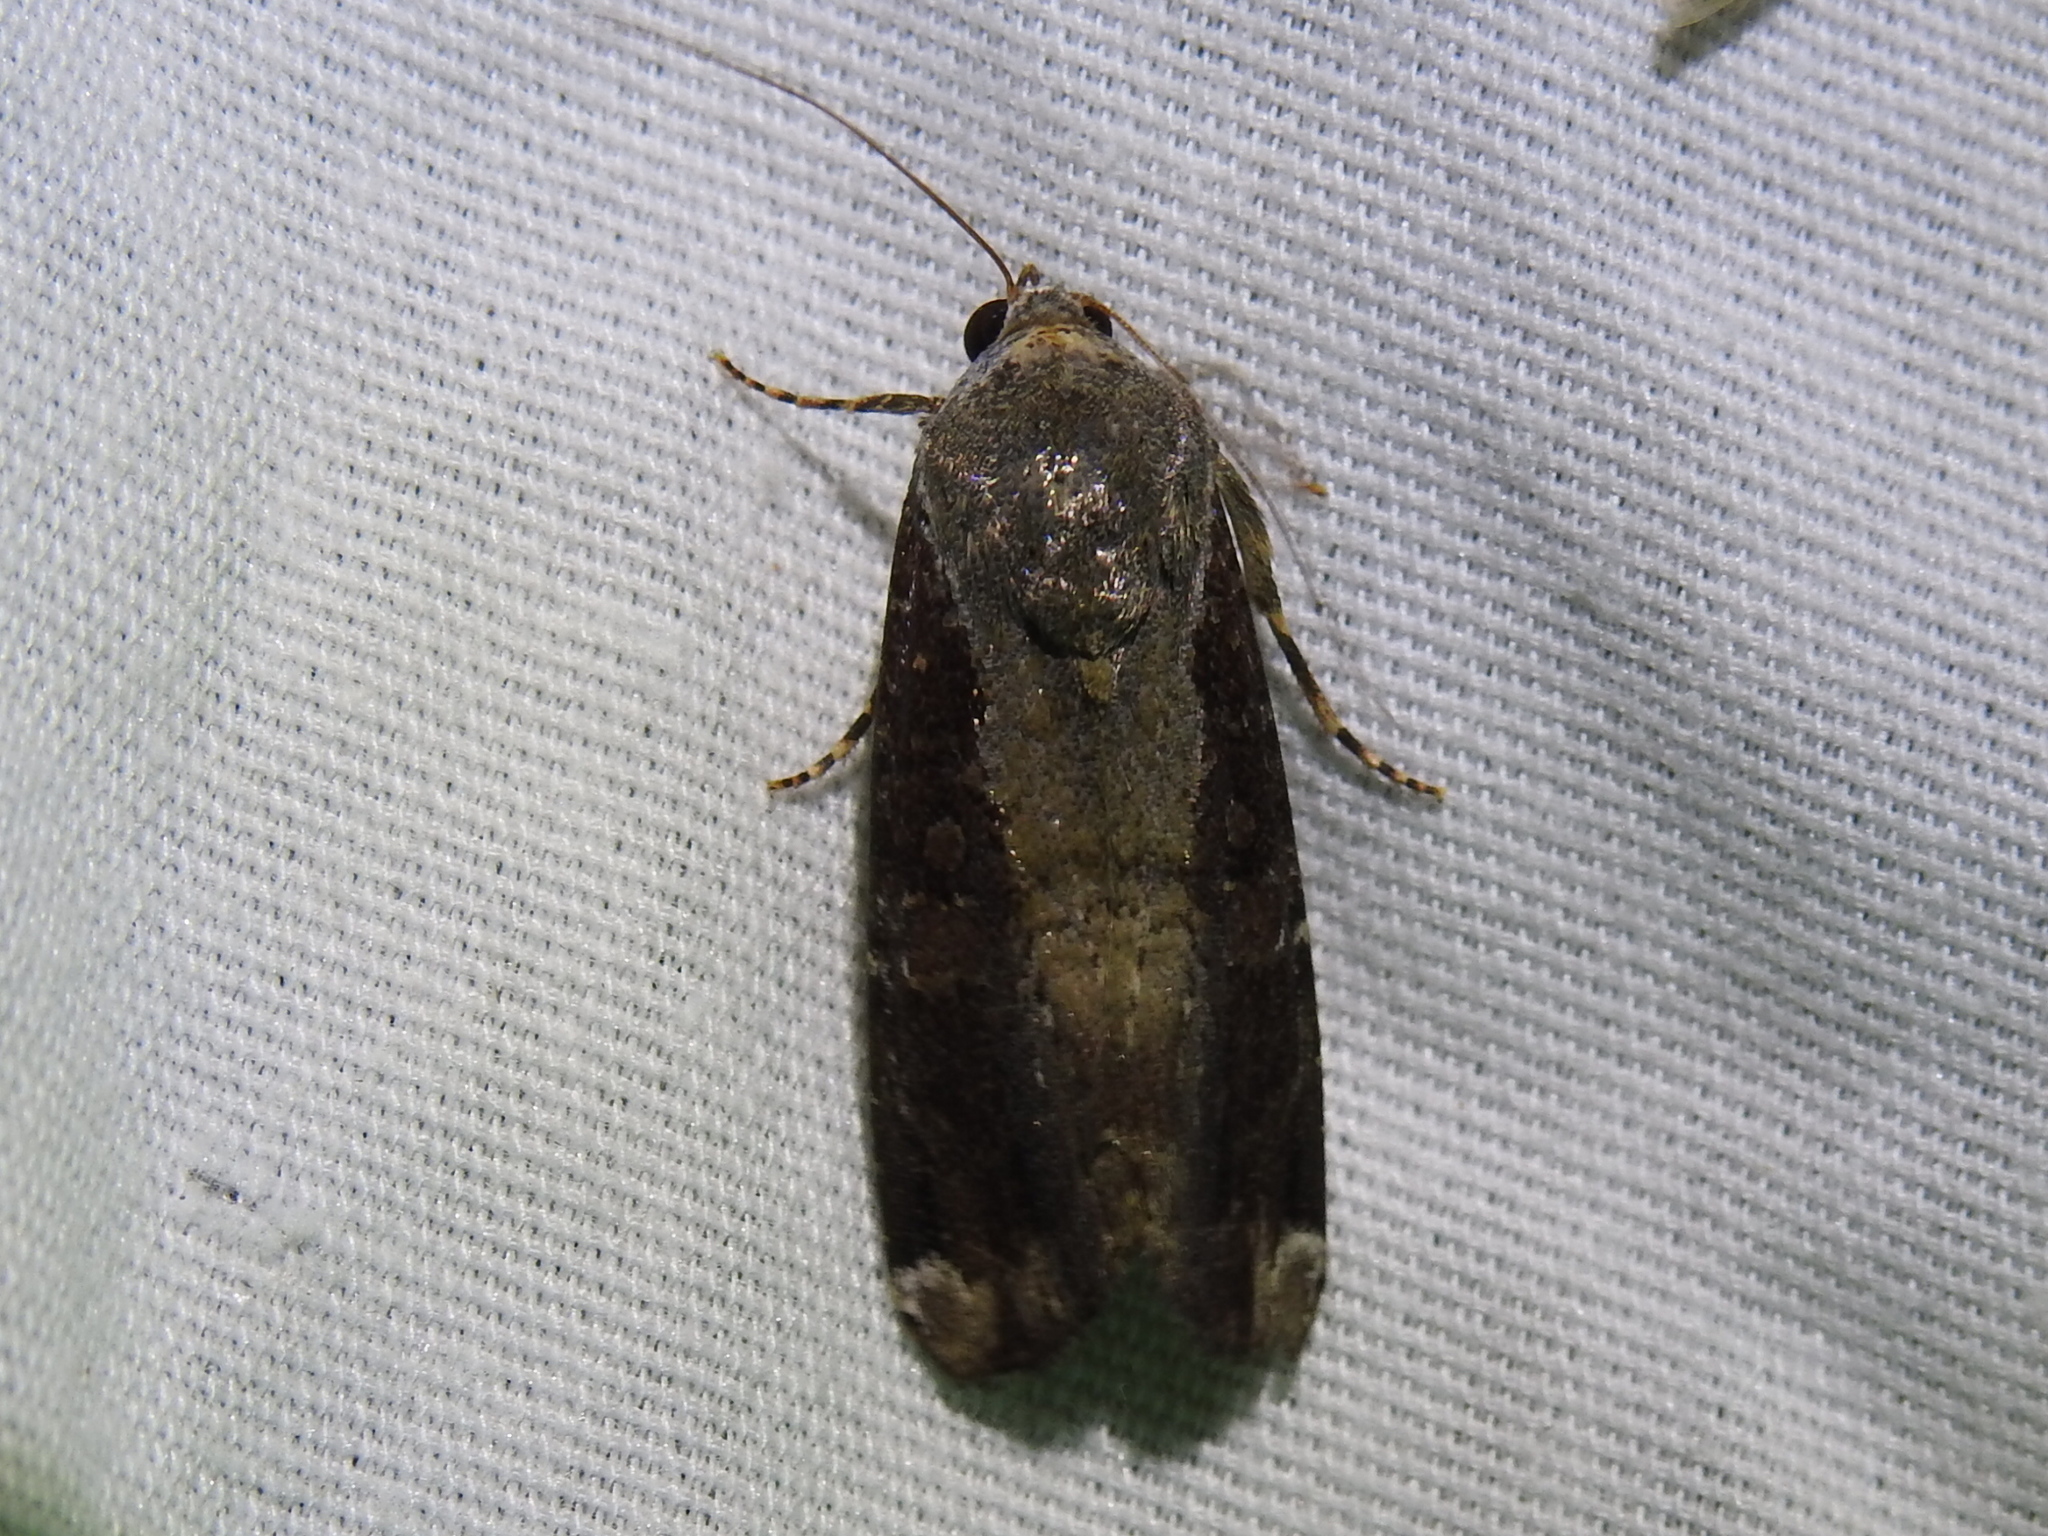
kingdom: Animalia
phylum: Arthropoda
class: Insecta
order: Lepidoptera
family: Noctuidae
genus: Magusa
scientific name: Magusa divaricata
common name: Orb narrow-winged moth
